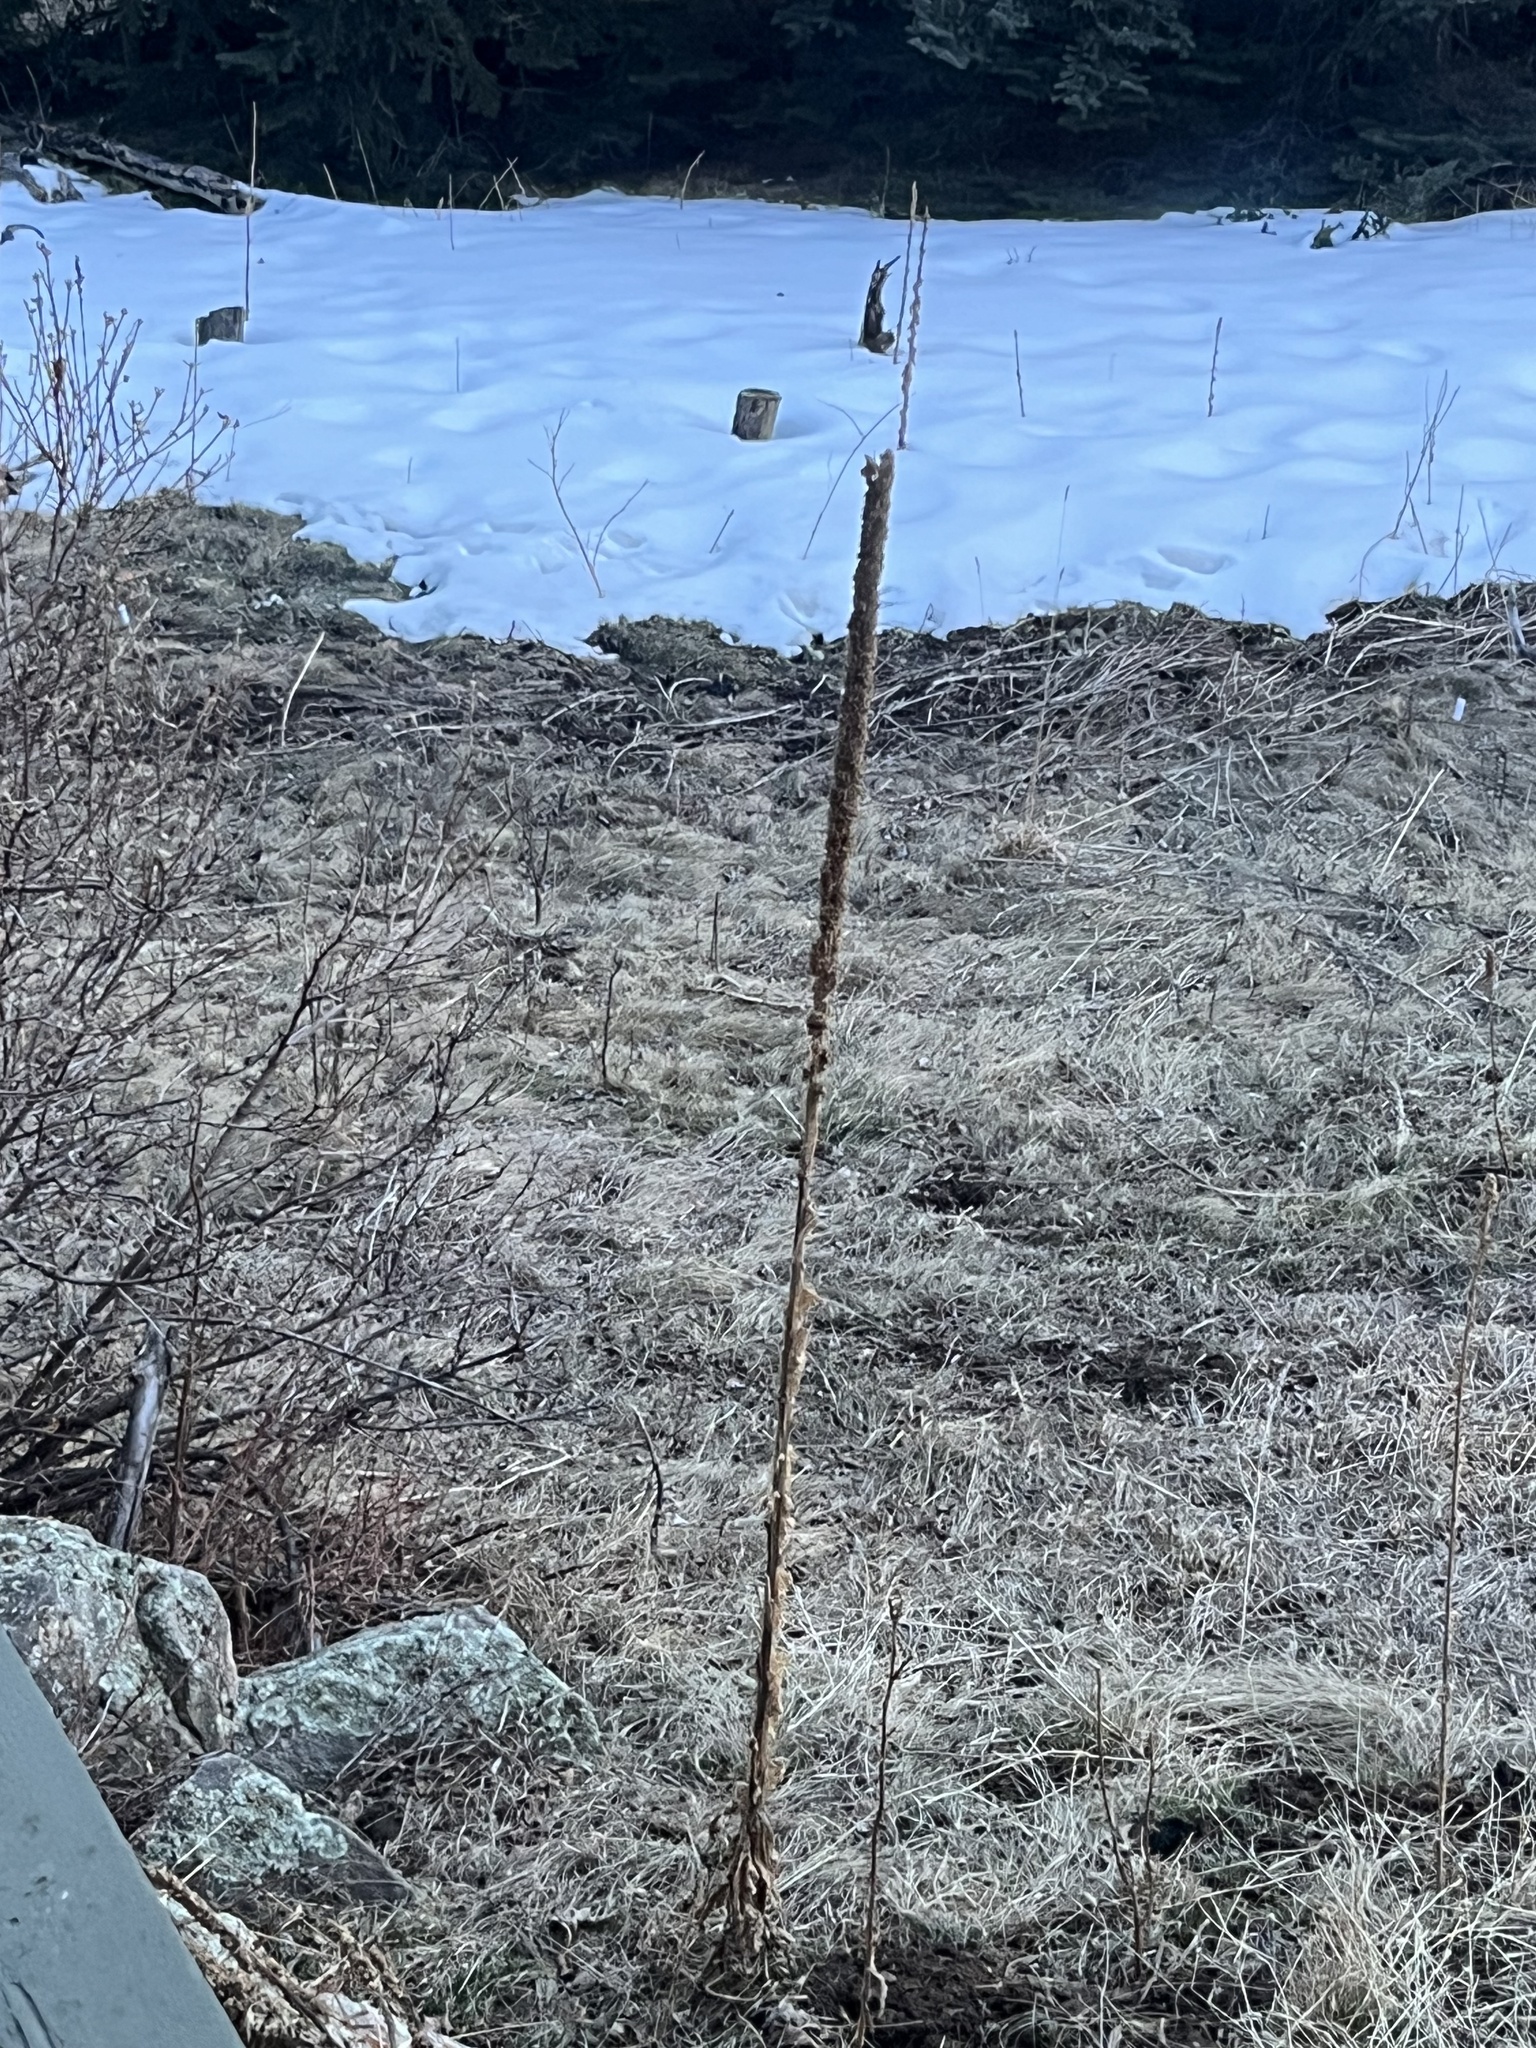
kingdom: Plantae
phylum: Tracheophyta
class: Magnoliopsida
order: Lamiales
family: Scrophulariaceae
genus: Verbascum
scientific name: Verbascum thapsus
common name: Common mullein
